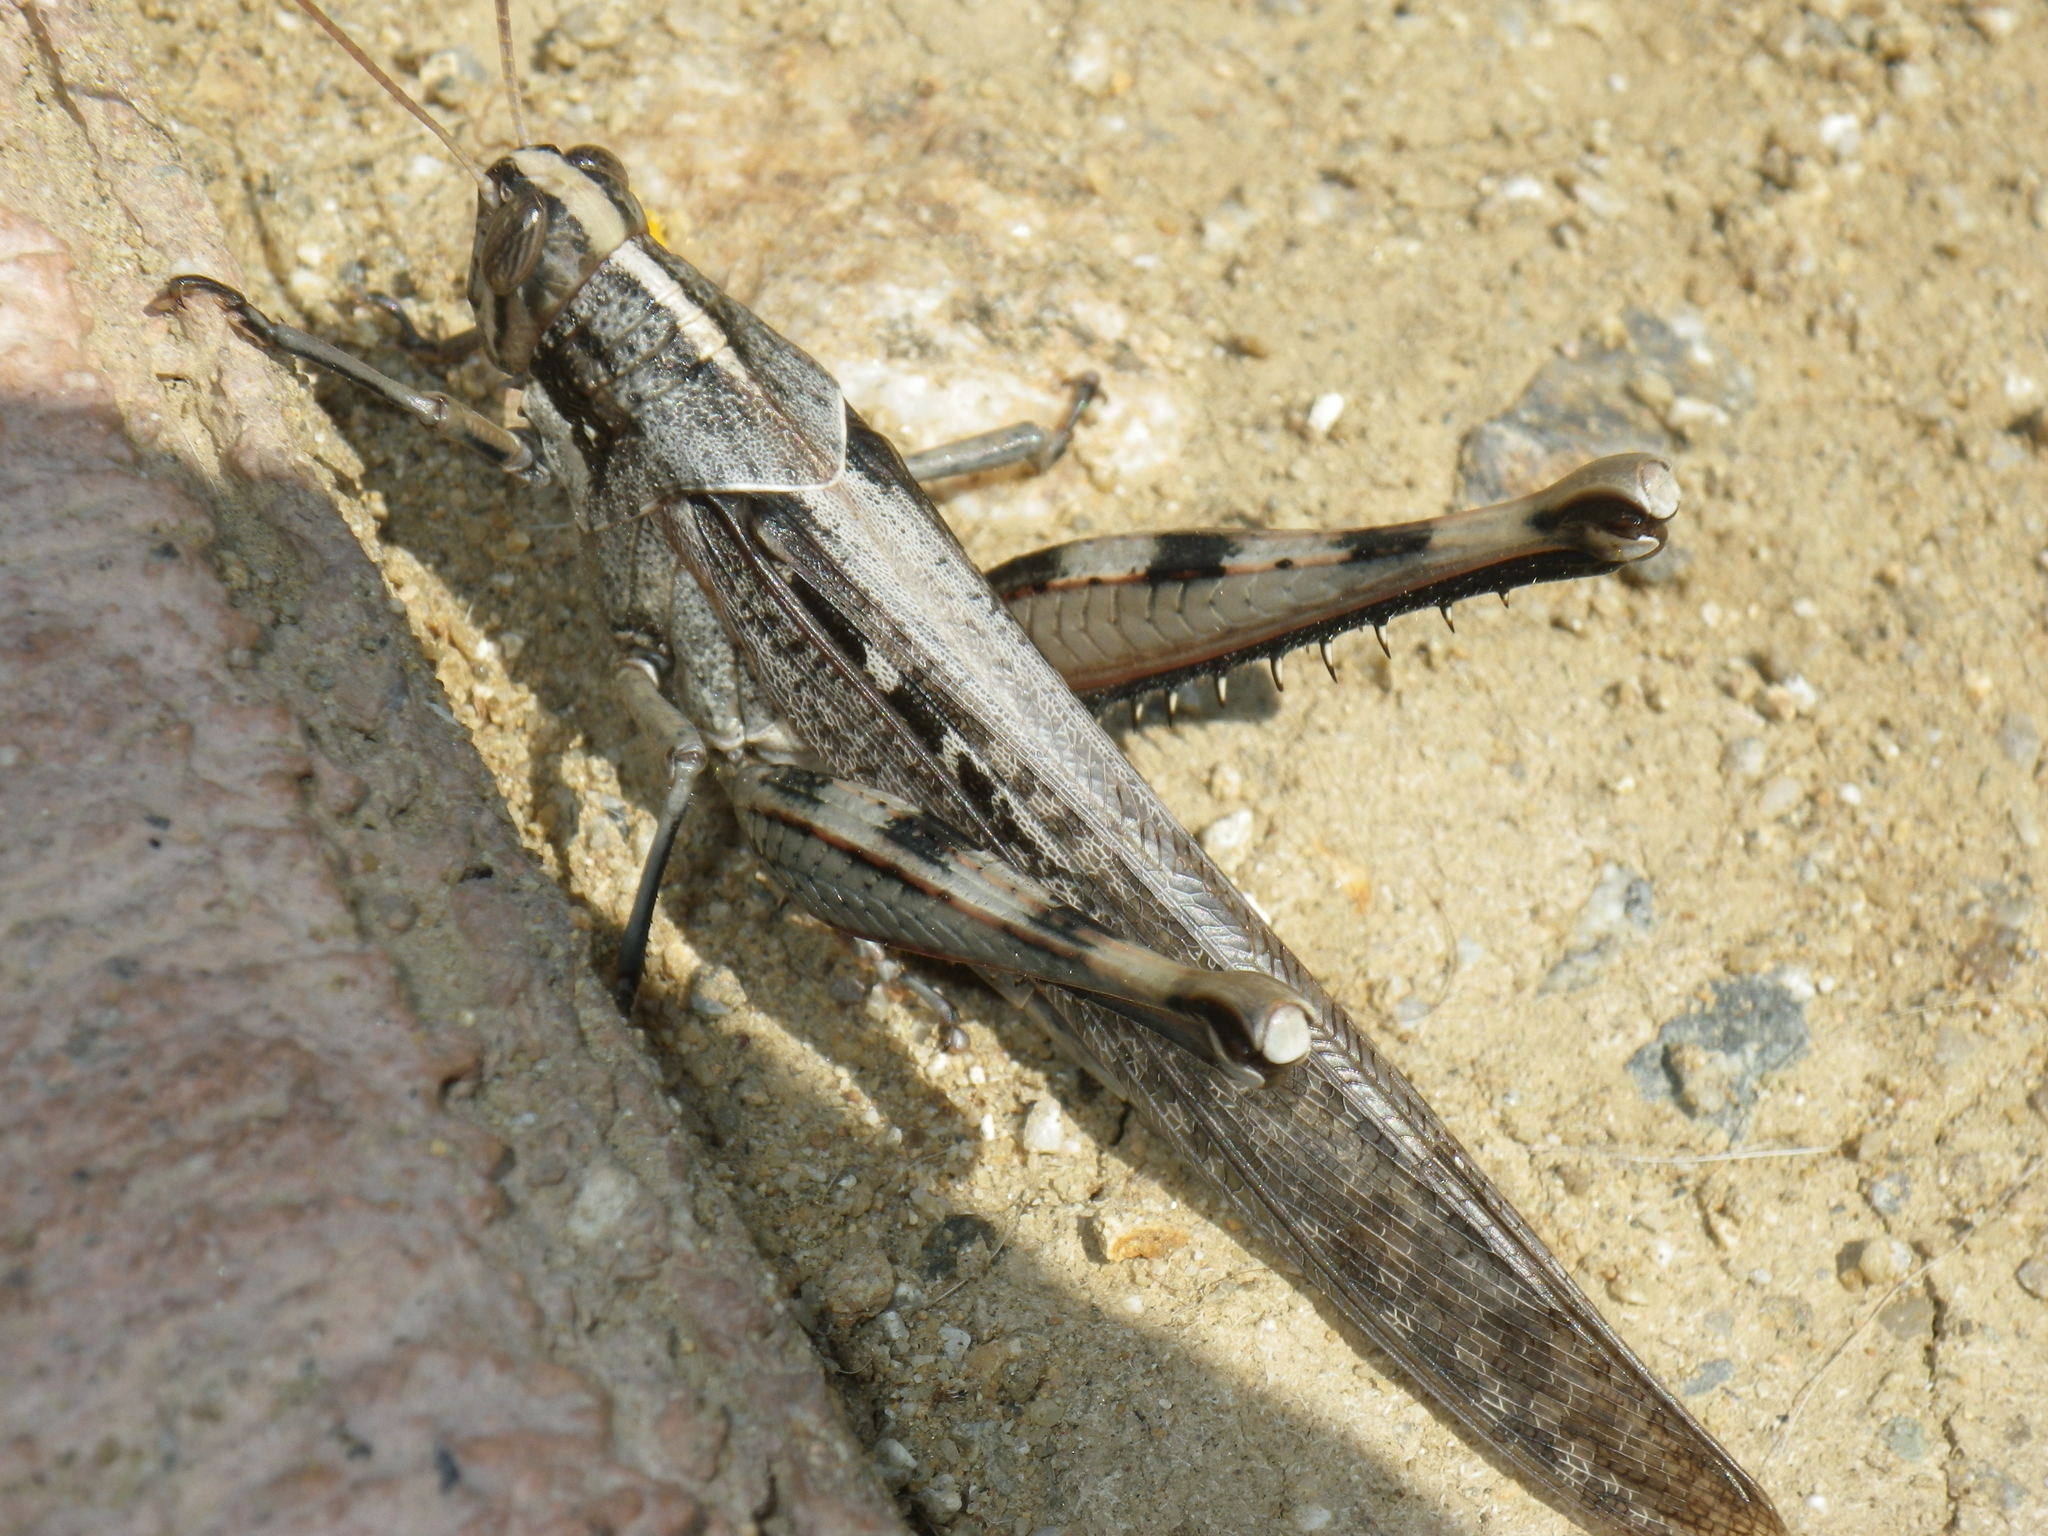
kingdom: Animalia
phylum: Arthropoda
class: Insecta
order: Orthoptera
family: Acrididae
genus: Schistocerca
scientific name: Schistocerca nitens
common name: Vagrant grasshopper
